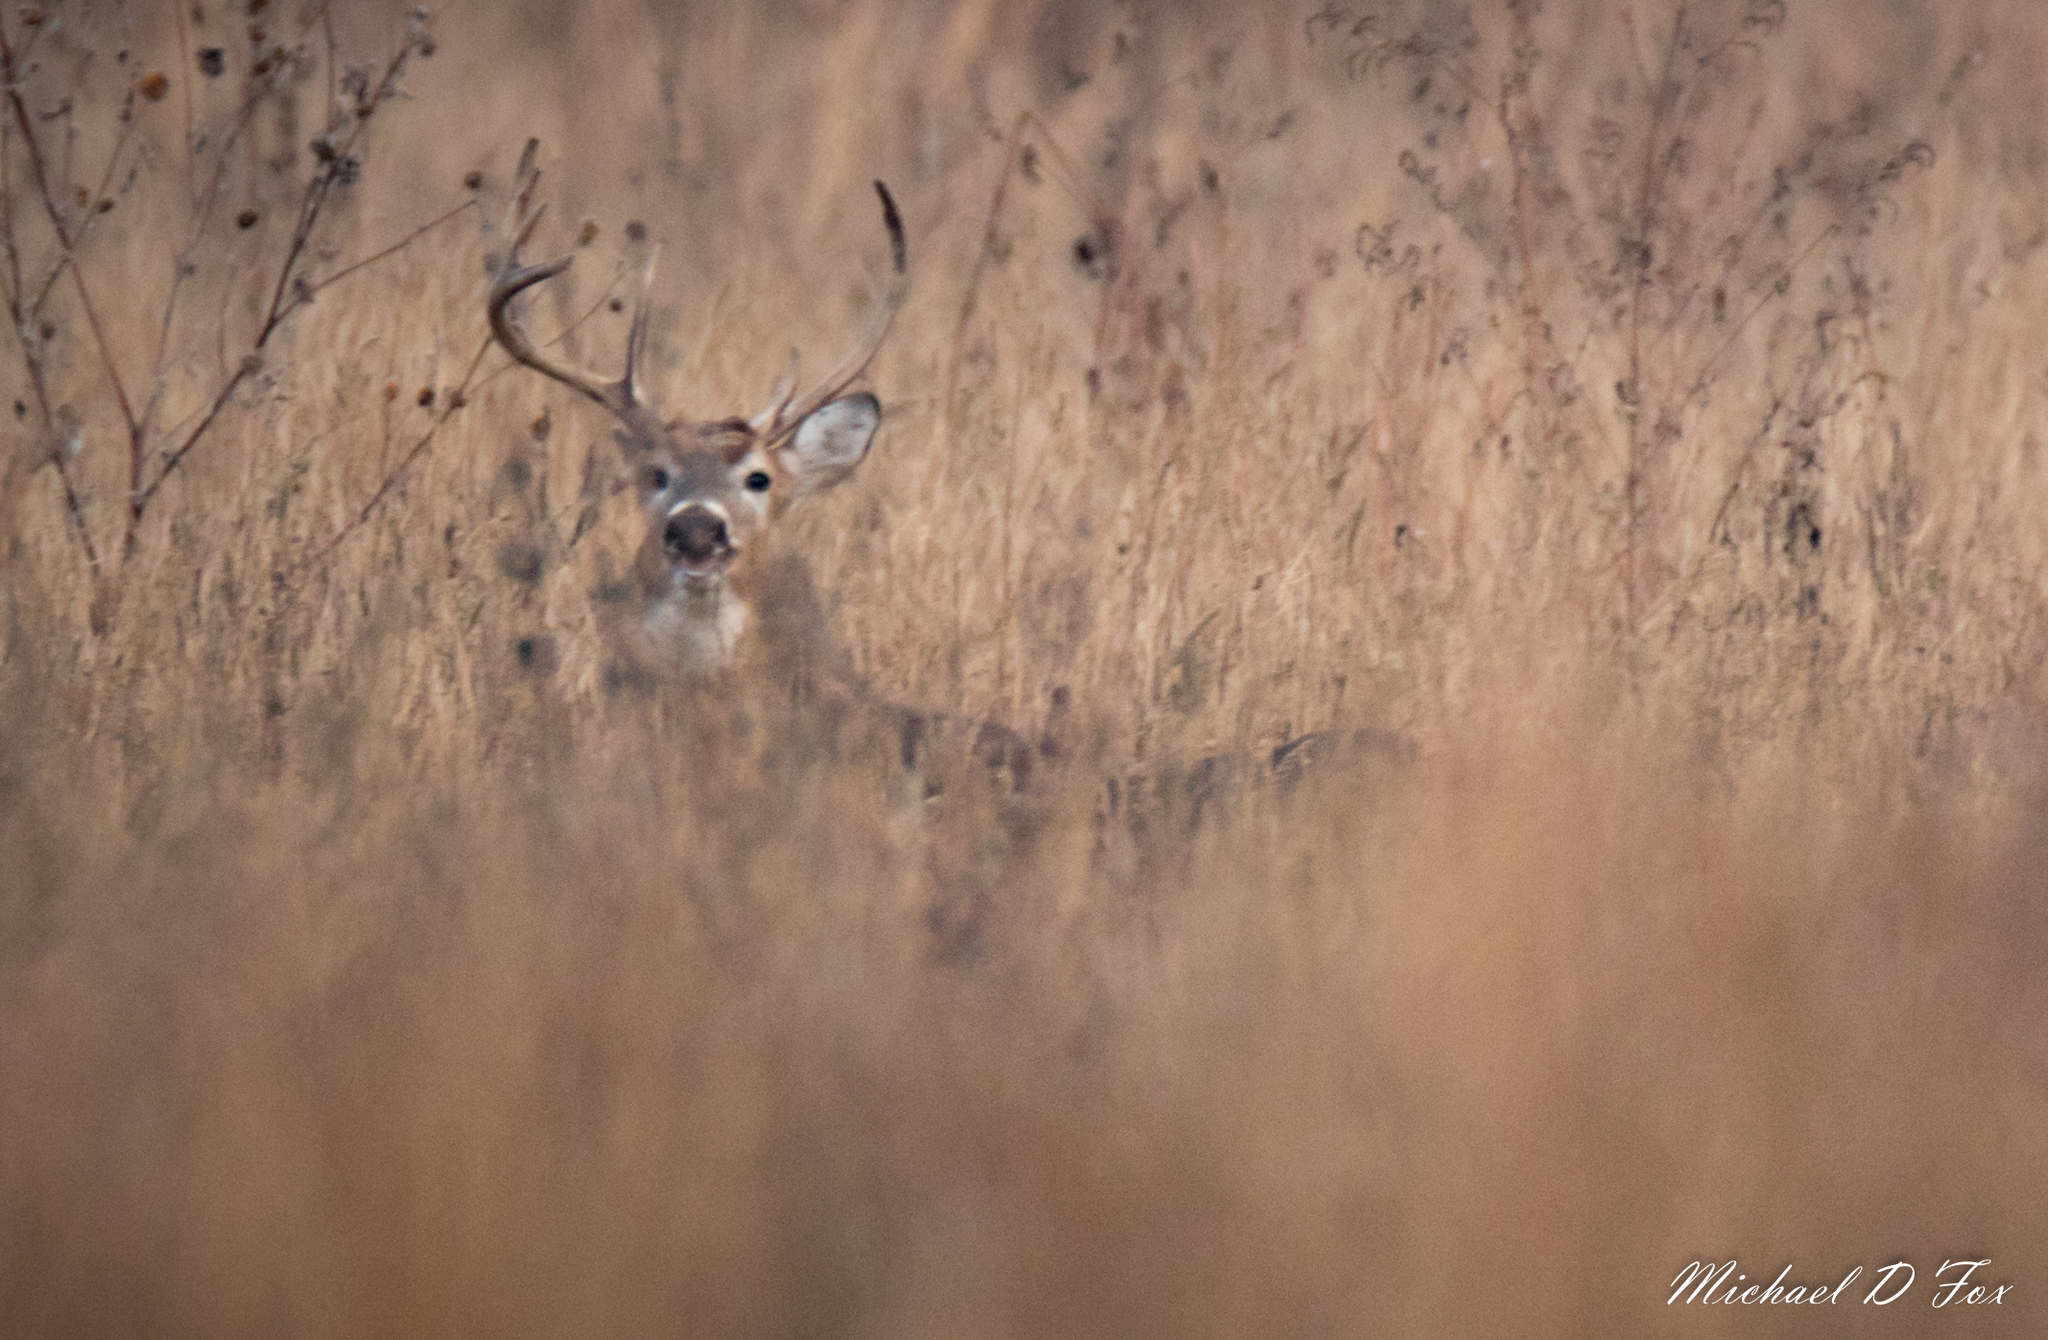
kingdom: Animalia
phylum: Chordata
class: Mammalia
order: Artiodactyla
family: Cervidae
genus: Odocoileus
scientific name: Odocoileus virginianus
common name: White-tailed deer
